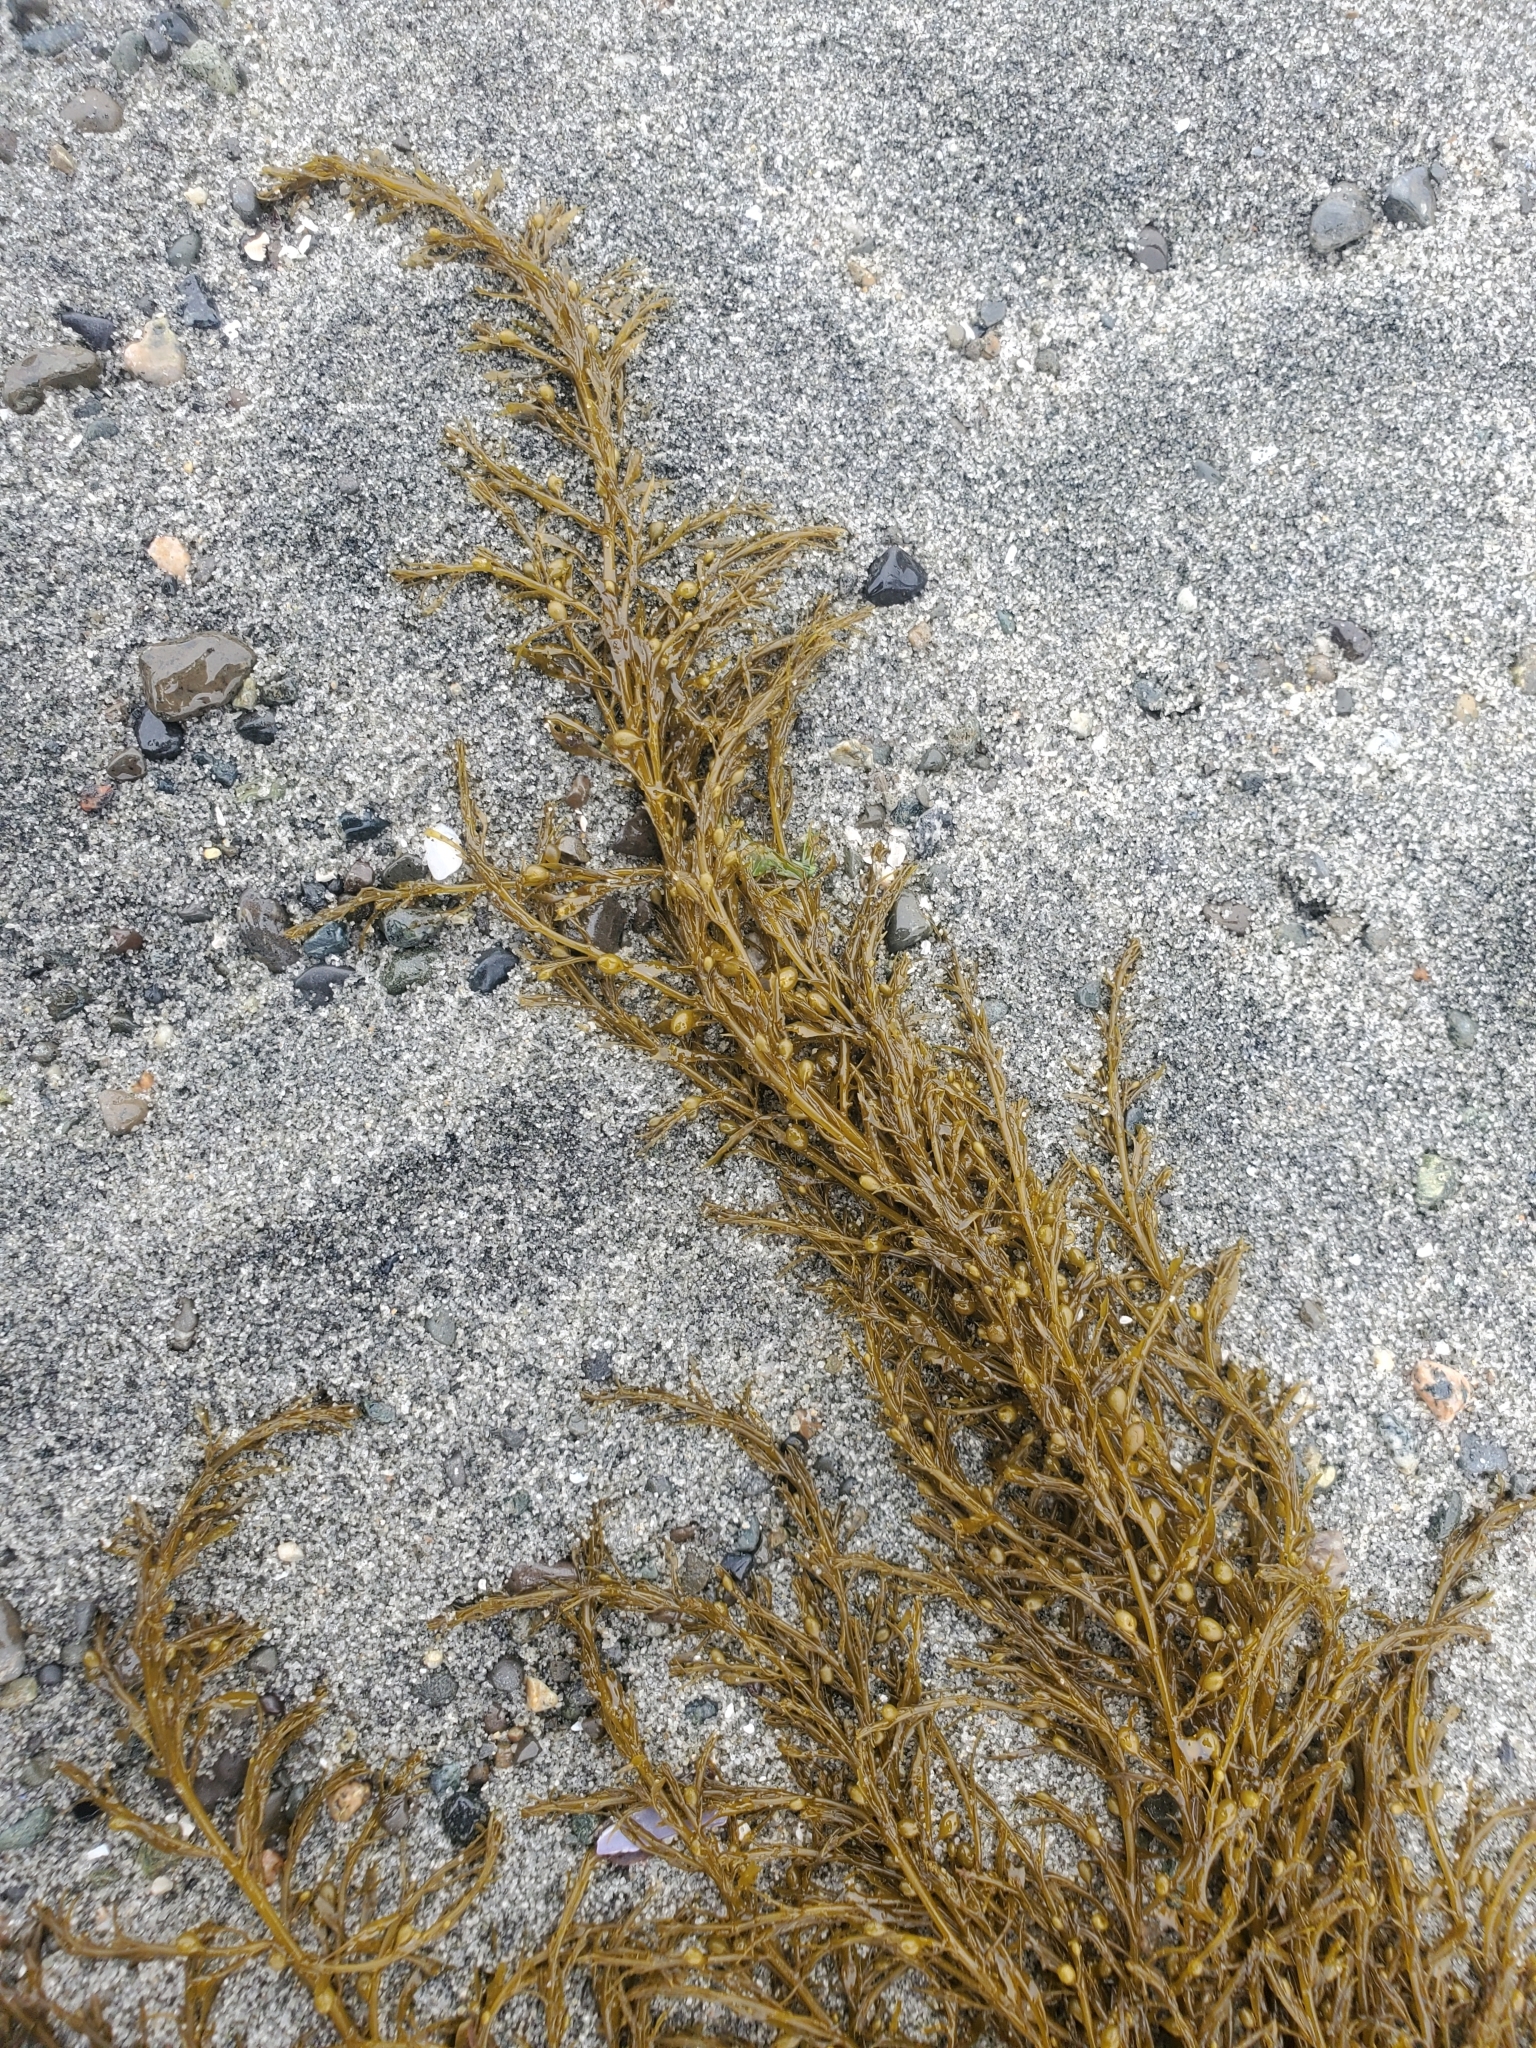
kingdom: Chromista
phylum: Ochrophyta
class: Phaeophyceae
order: Fucales
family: Sargassaceae
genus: Sargassum
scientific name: Sargassum muticum
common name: Japweed
